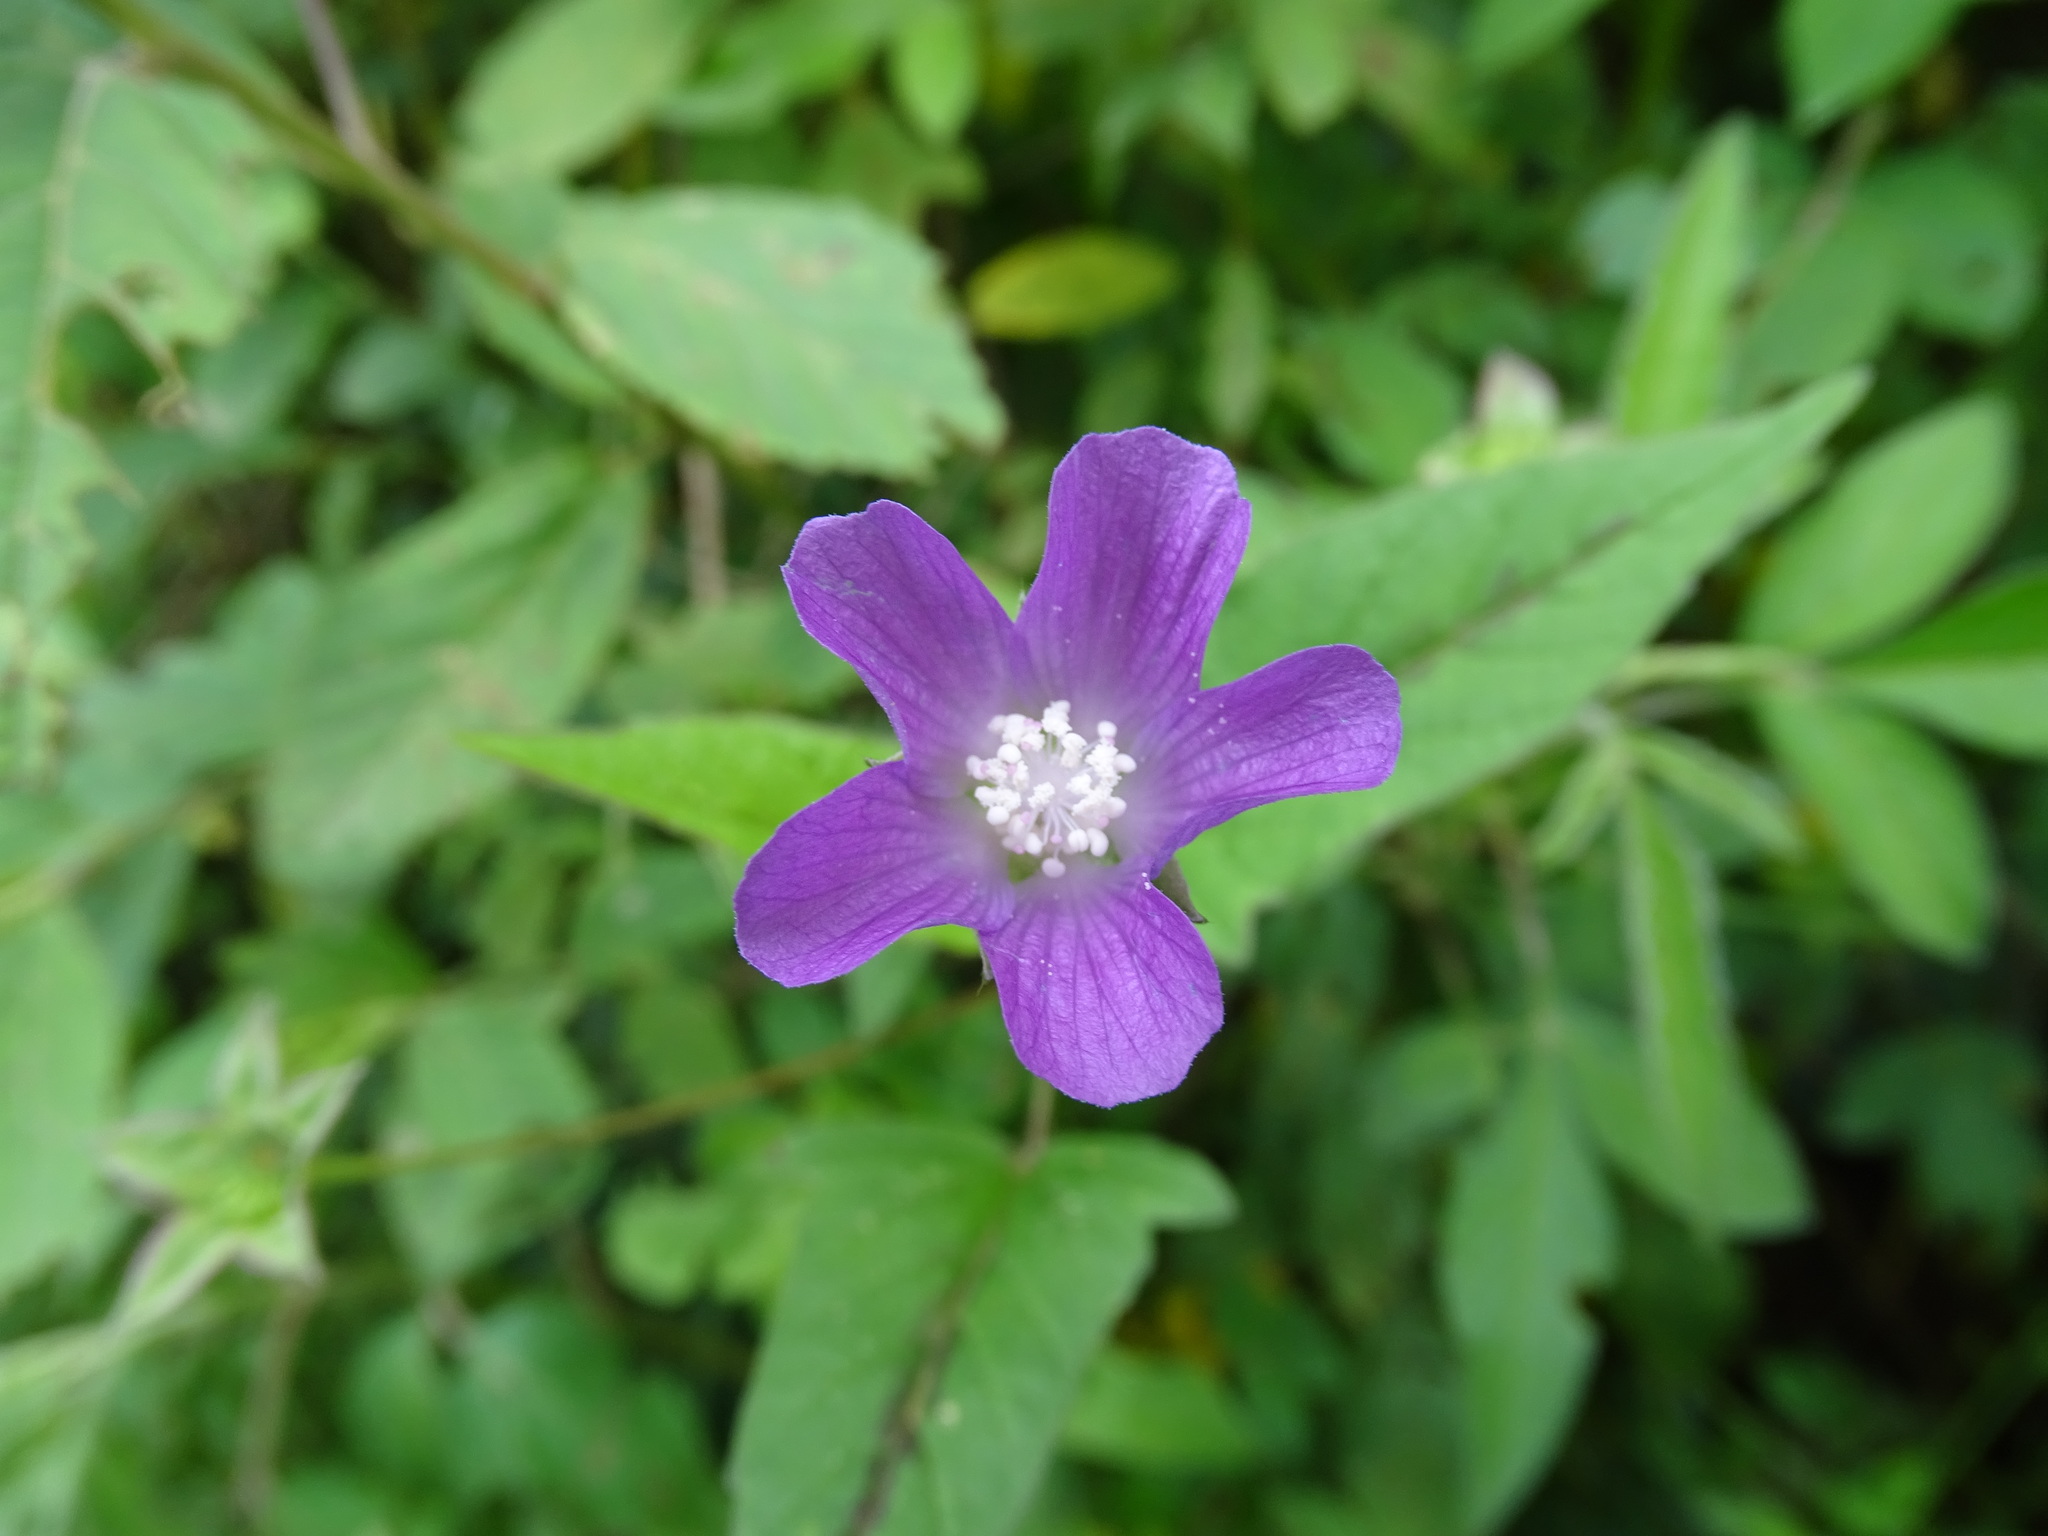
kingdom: Plantae
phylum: Tracheophyta
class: Magnoliopsida
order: Malvales
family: Malvaceae
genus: Anoda
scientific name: Anoda cristata
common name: Spurred anoda
